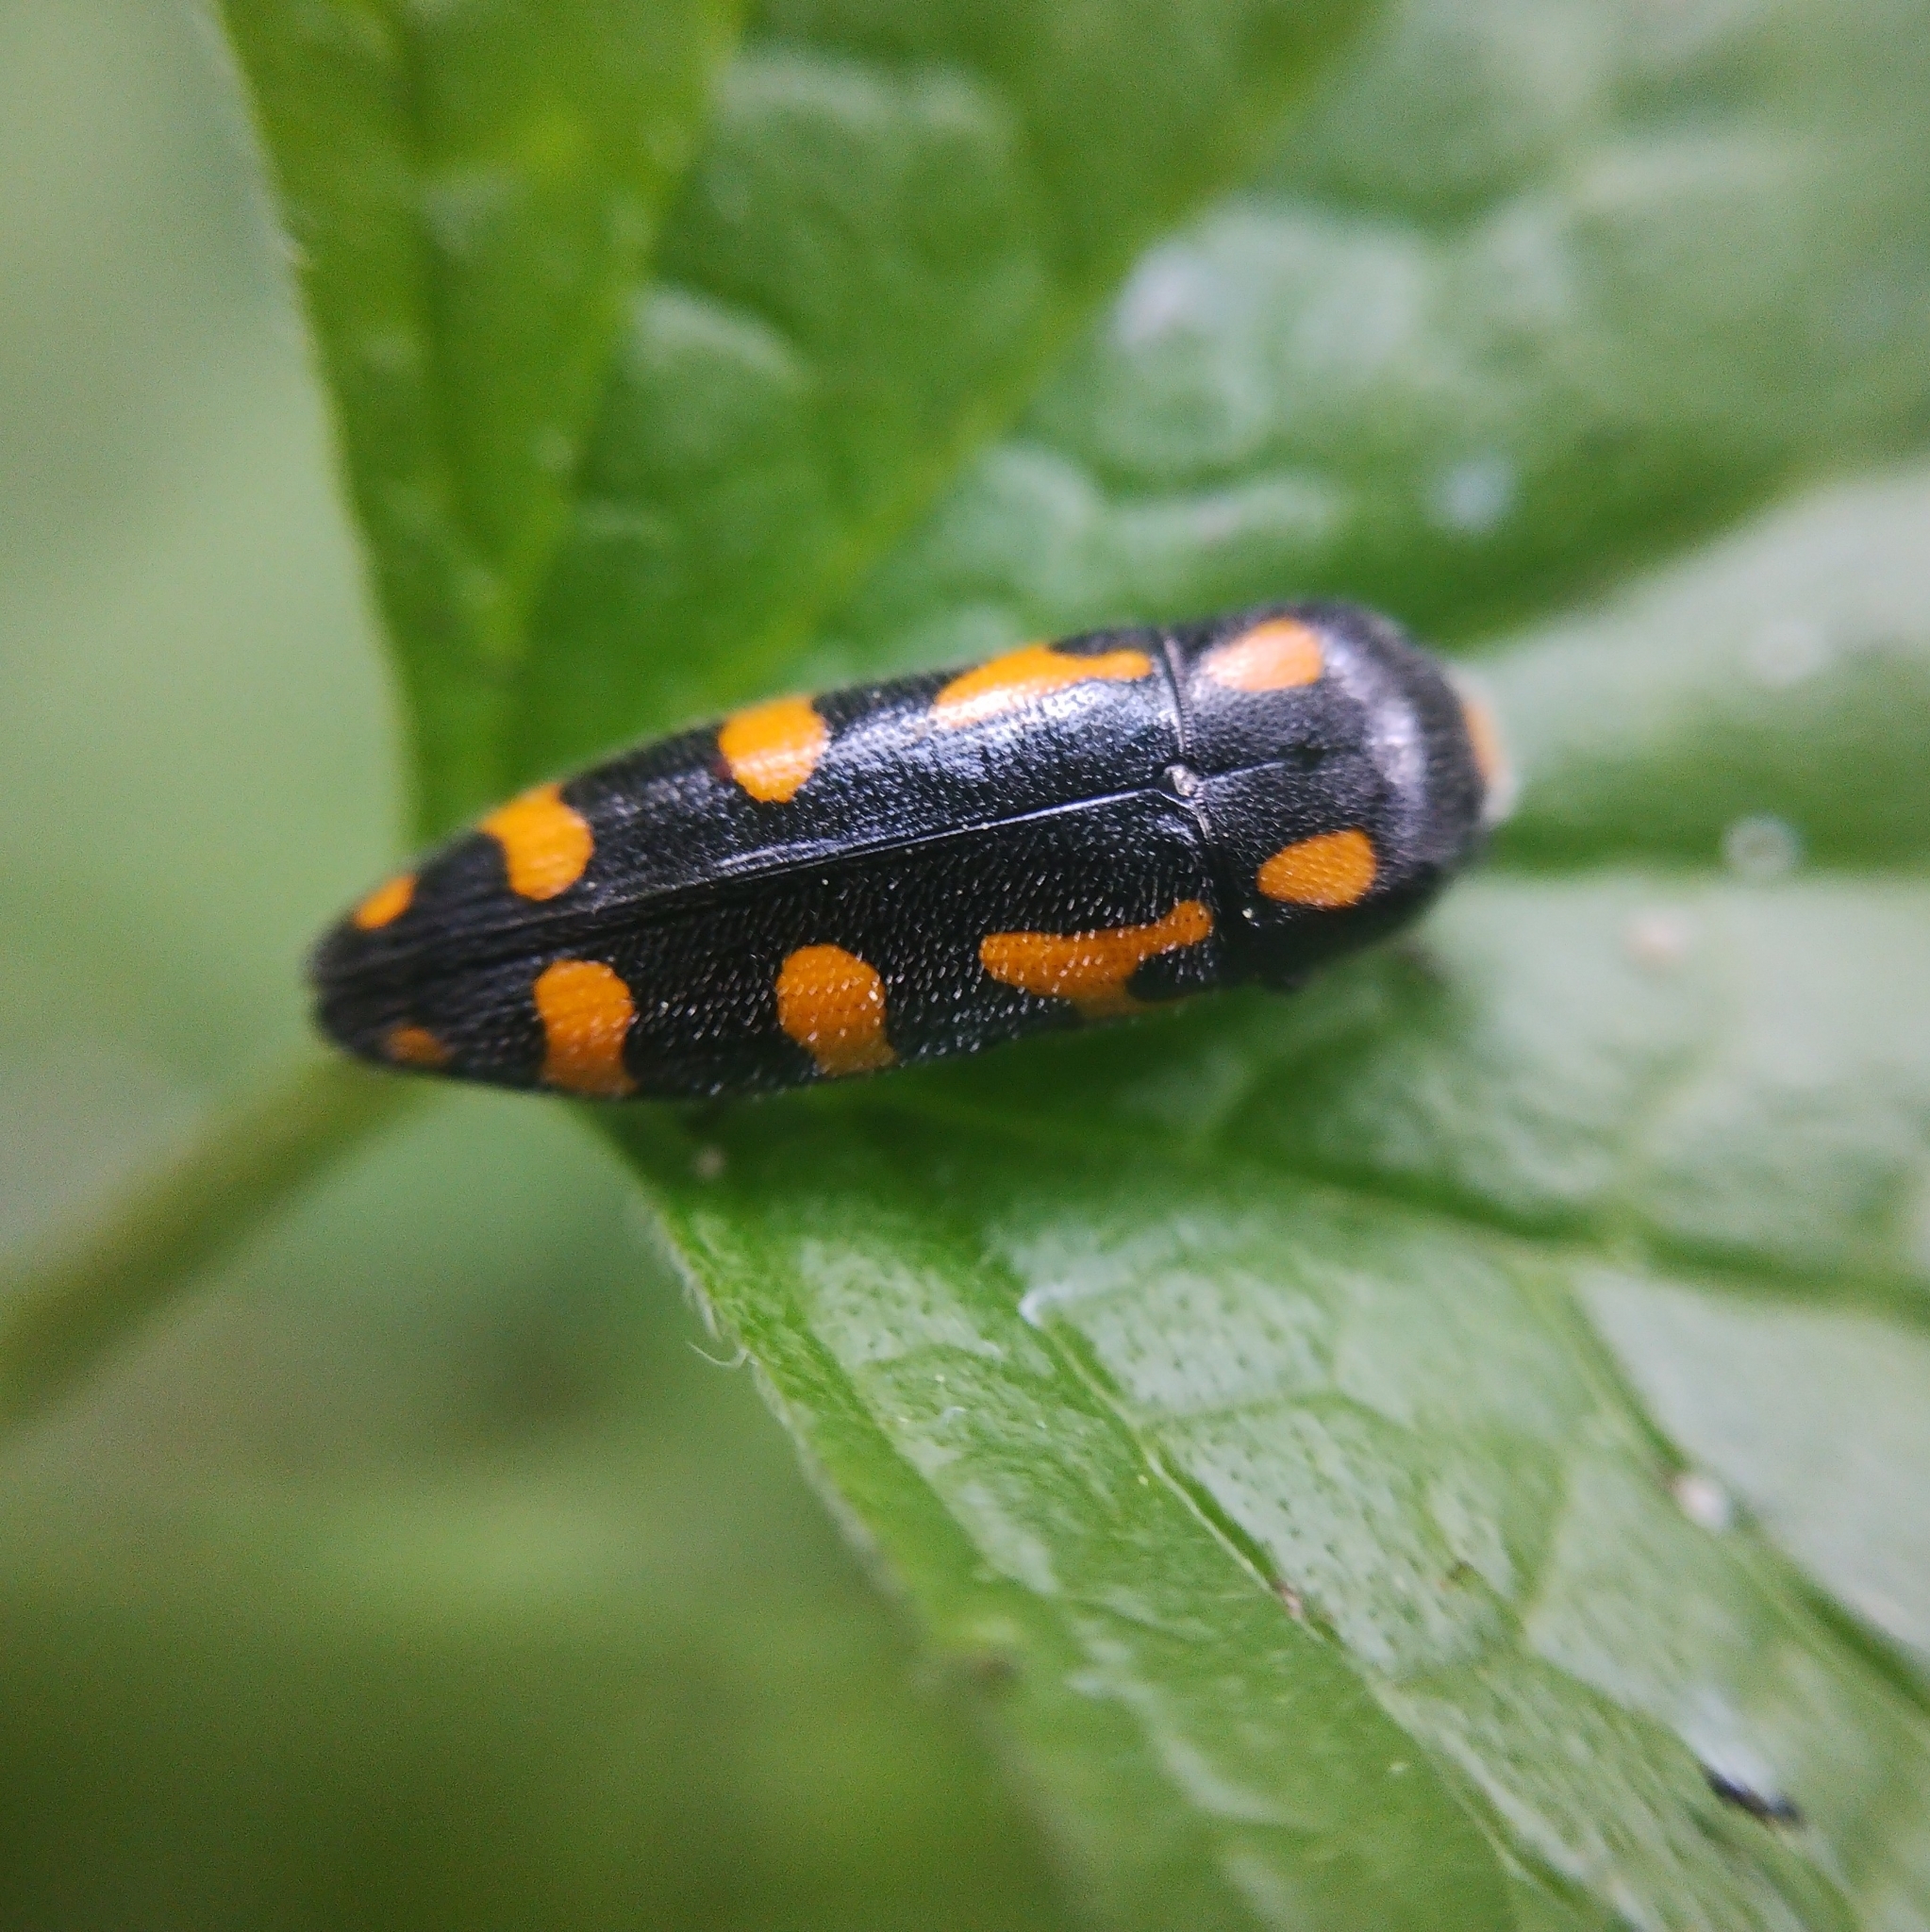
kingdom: Animalia
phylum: Arthropoda
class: Insecta
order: Coleoptera
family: Buprestidae
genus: Ptosima
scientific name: Ptosima undecimmaculata
